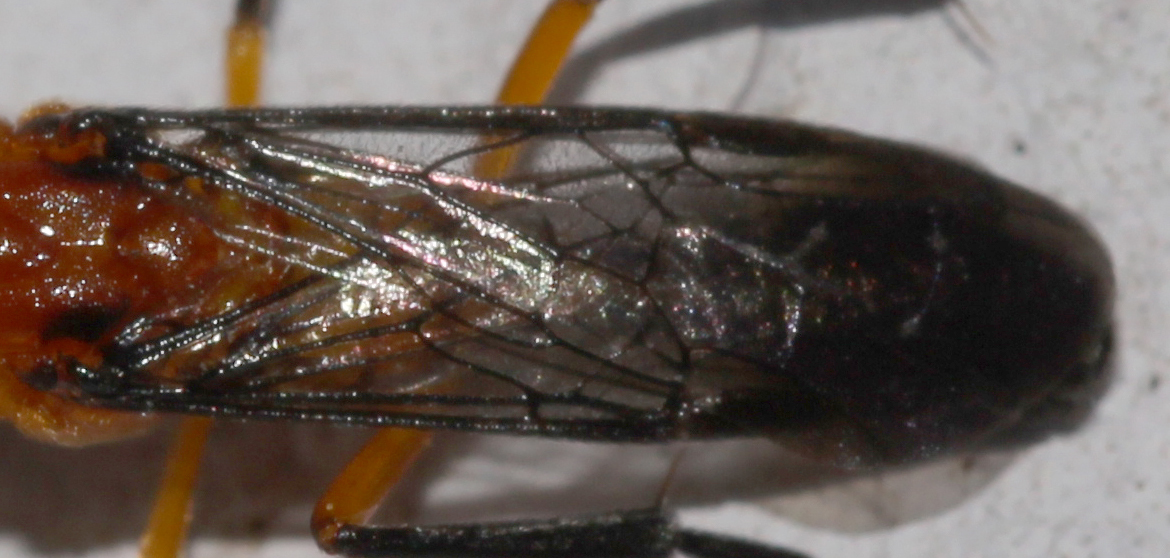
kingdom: Animalia
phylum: Arthropoda
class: Insecta
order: Hymenoptera
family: Argidae
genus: Scobina
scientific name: Scobina thoracica
